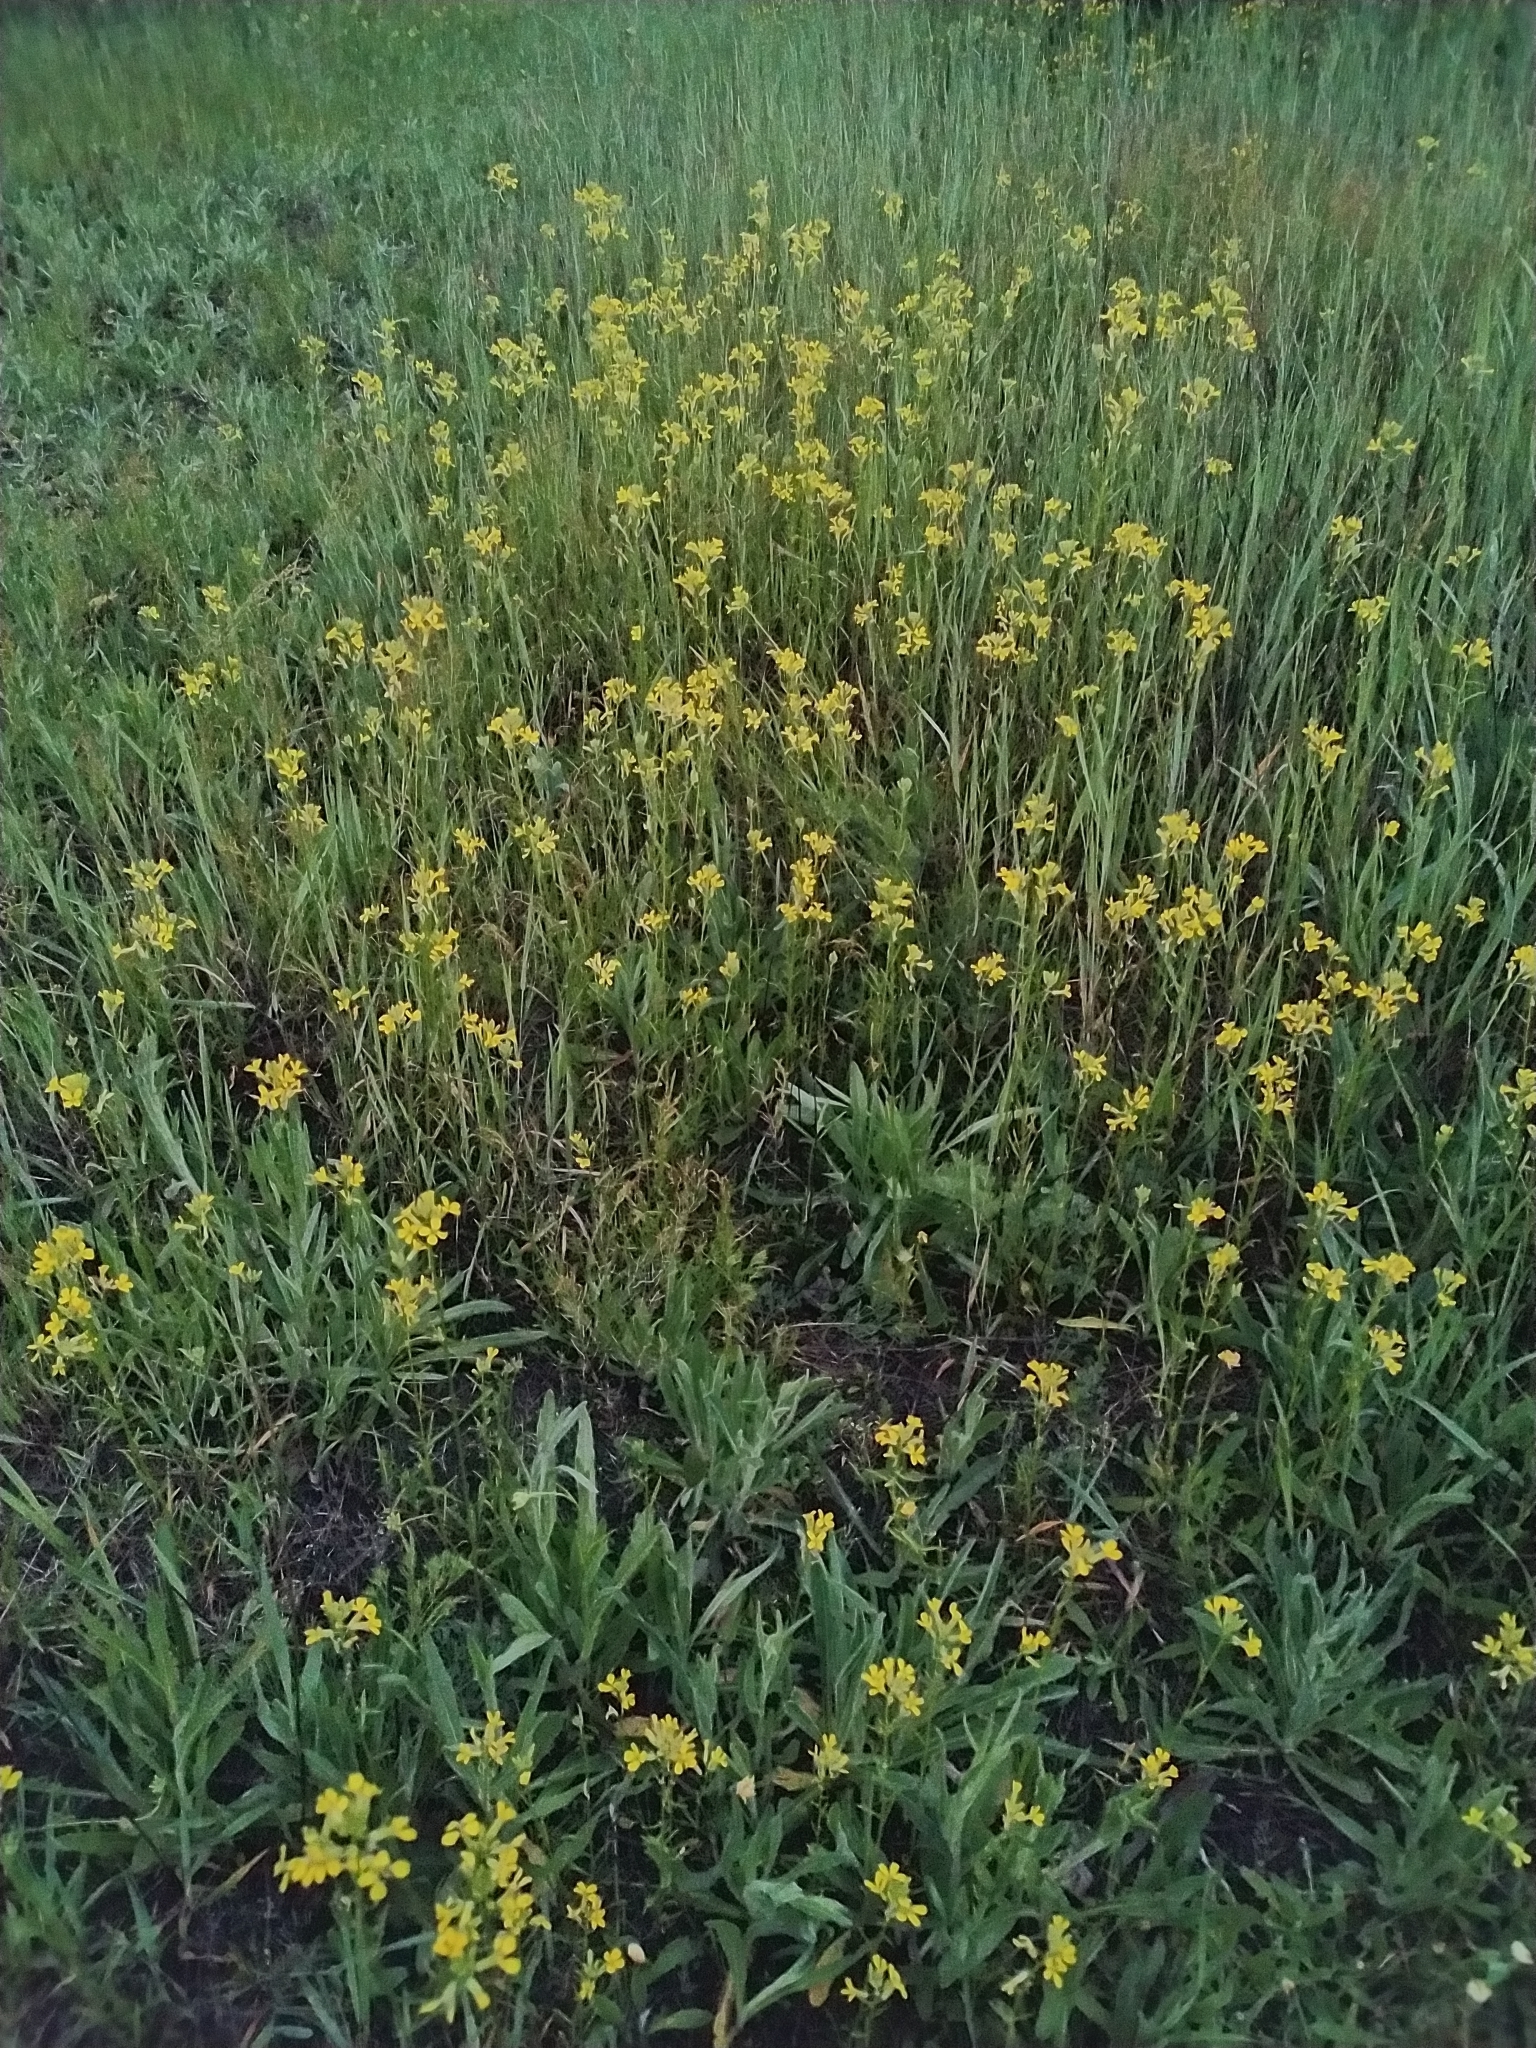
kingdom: Plantae
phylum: Tracheophyta
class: Magnoliopsida
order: Brassicales
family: Brassicaceae
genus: Erysimum
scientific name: Erysimum cheiranthoides
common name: Treacle mustard
